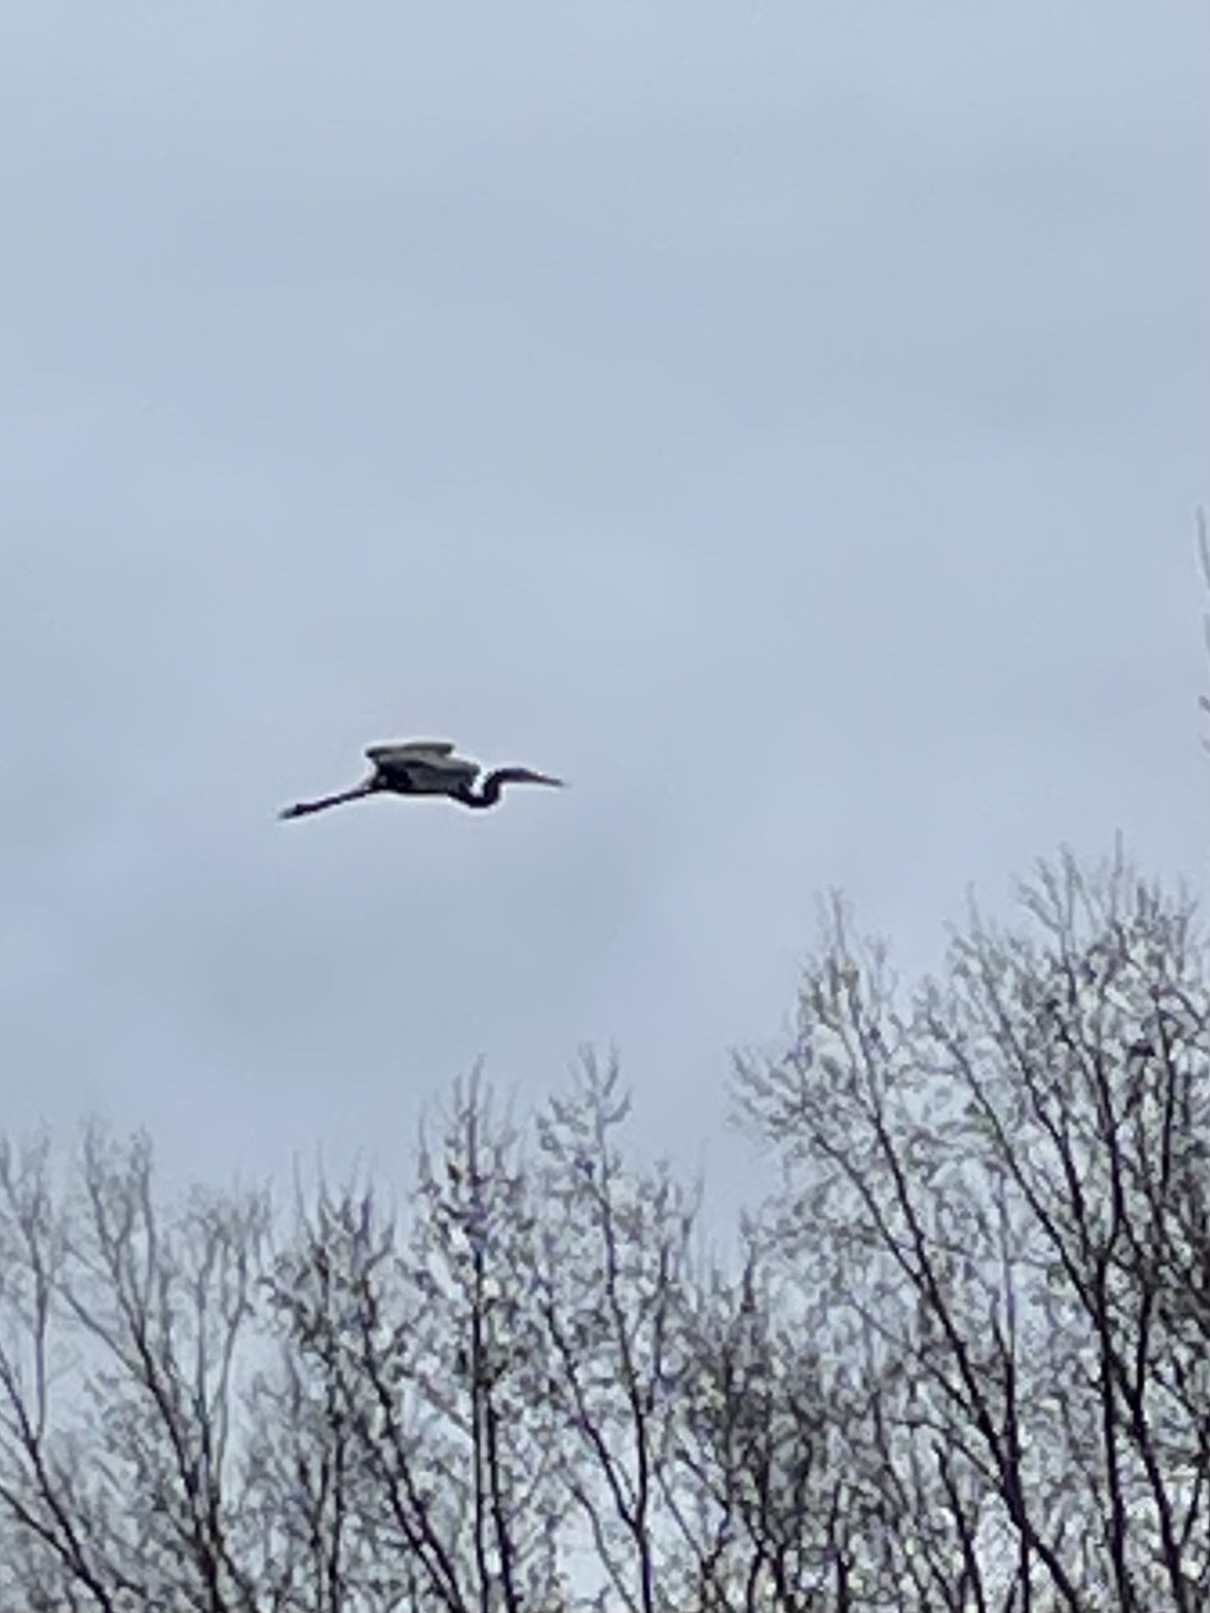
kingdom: Animalia
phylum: Chordata
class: Aves
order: Pelecaniformes
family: Ardeidae
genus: Ardea
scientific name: Ardea herodias
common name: Great blue heron
